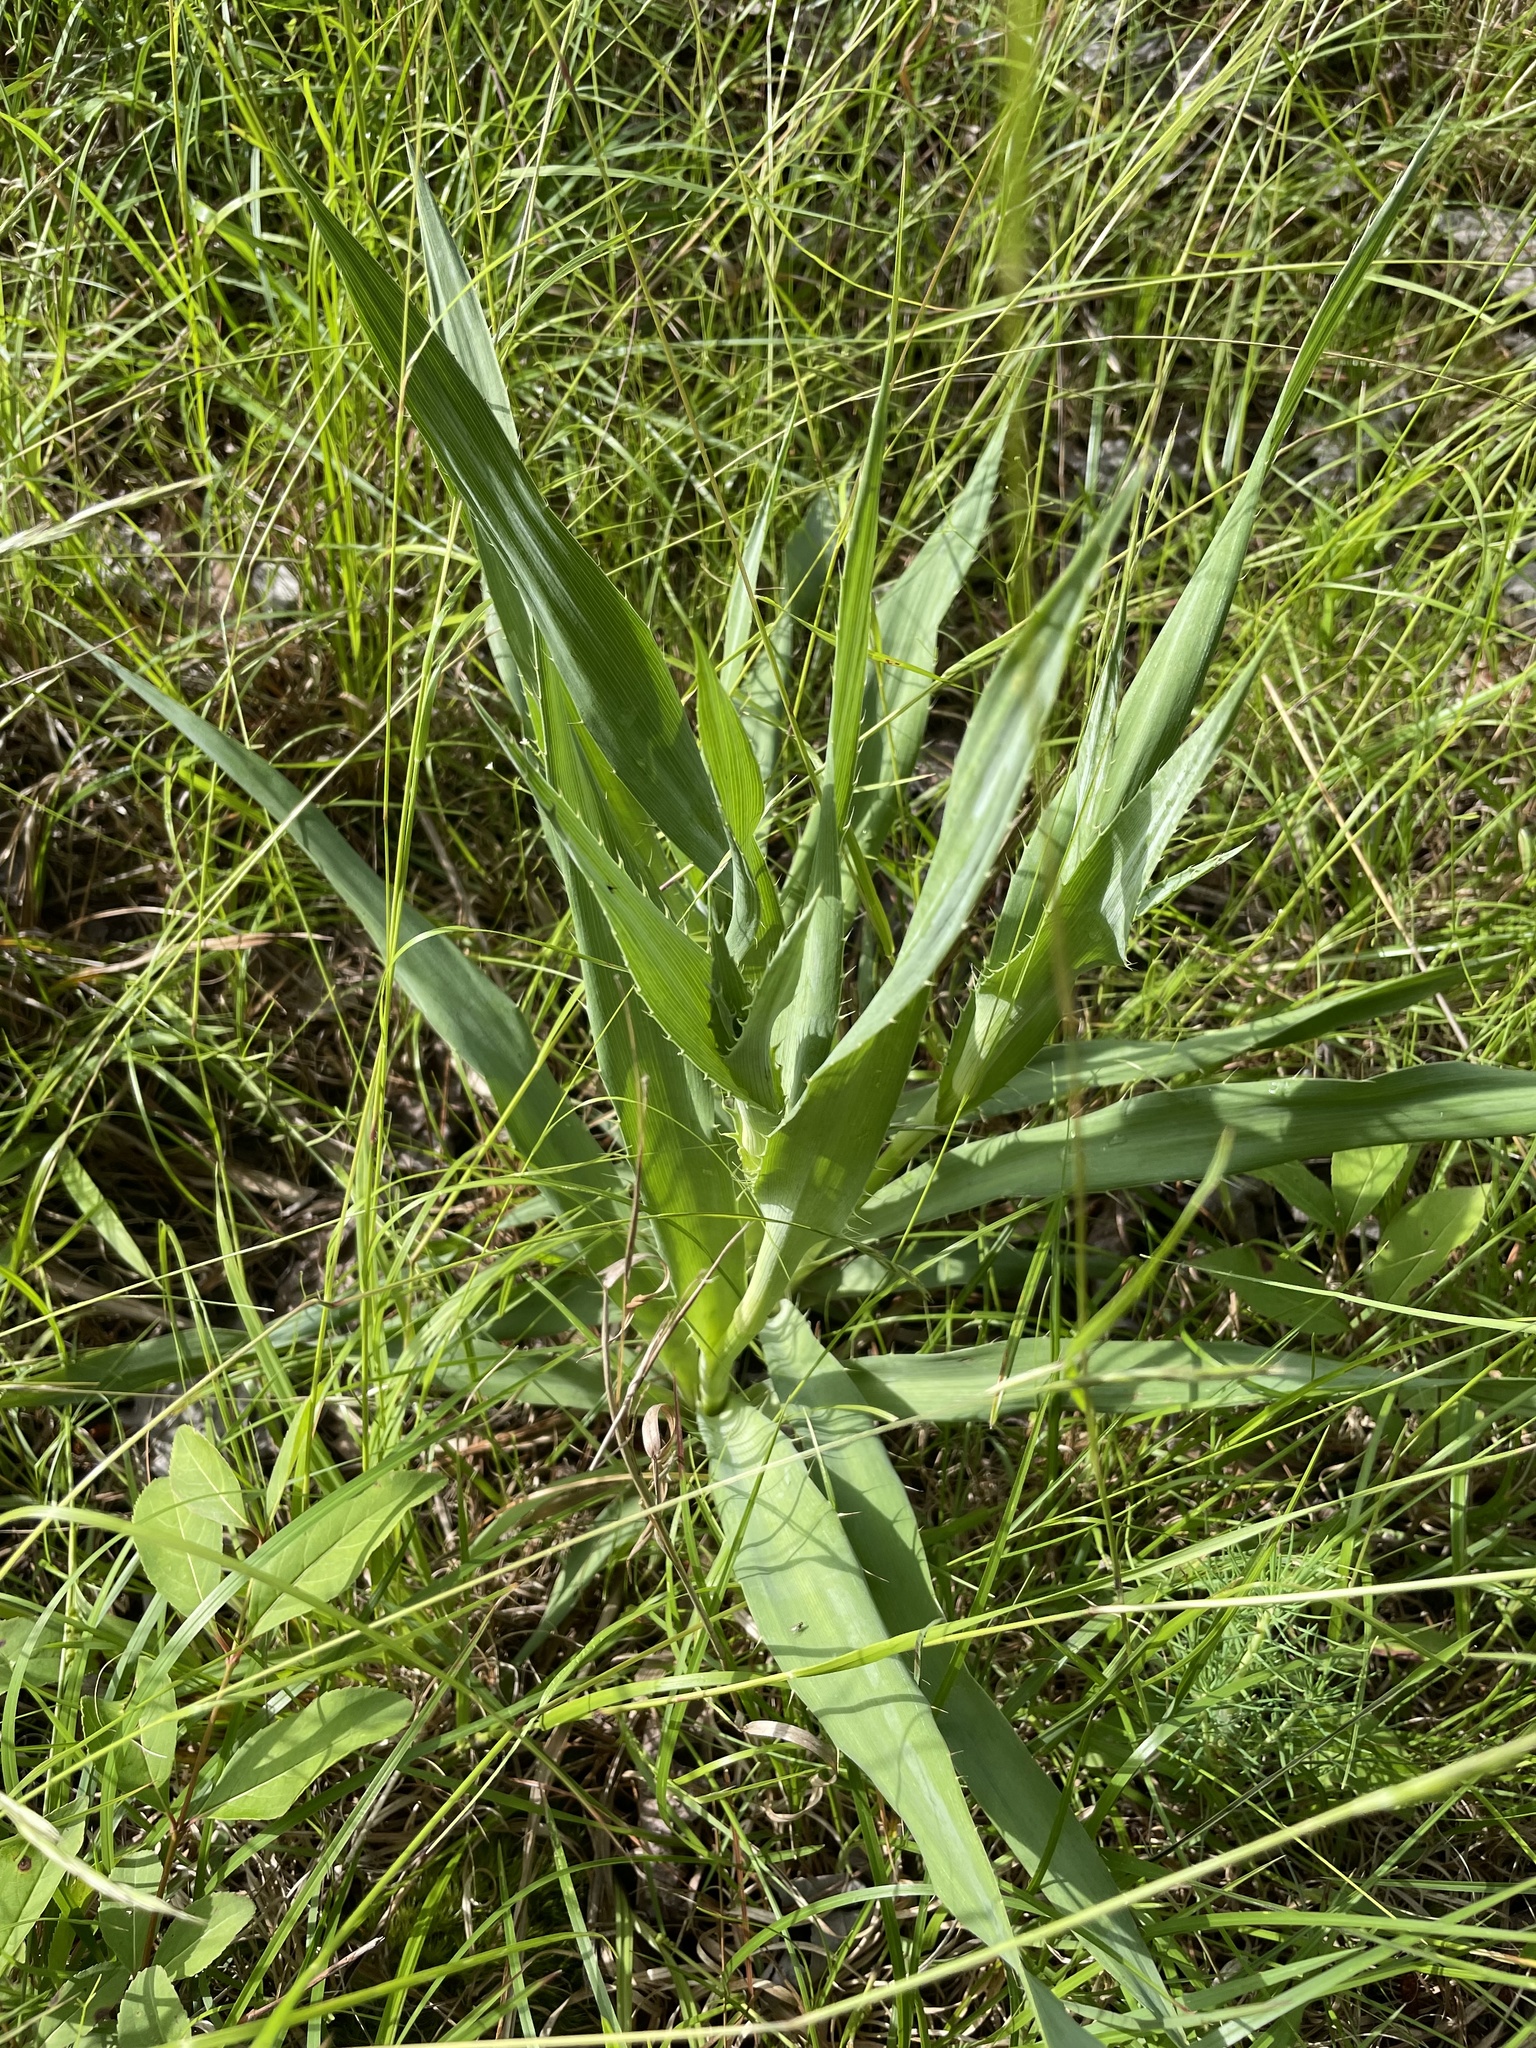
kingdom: Plantae
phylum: Tracheophyta
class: Magnoliopsida
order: Apiales
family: Apiaceae
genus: Eryngium
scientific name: Eryngium yuccifolium
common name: Button eryngo
